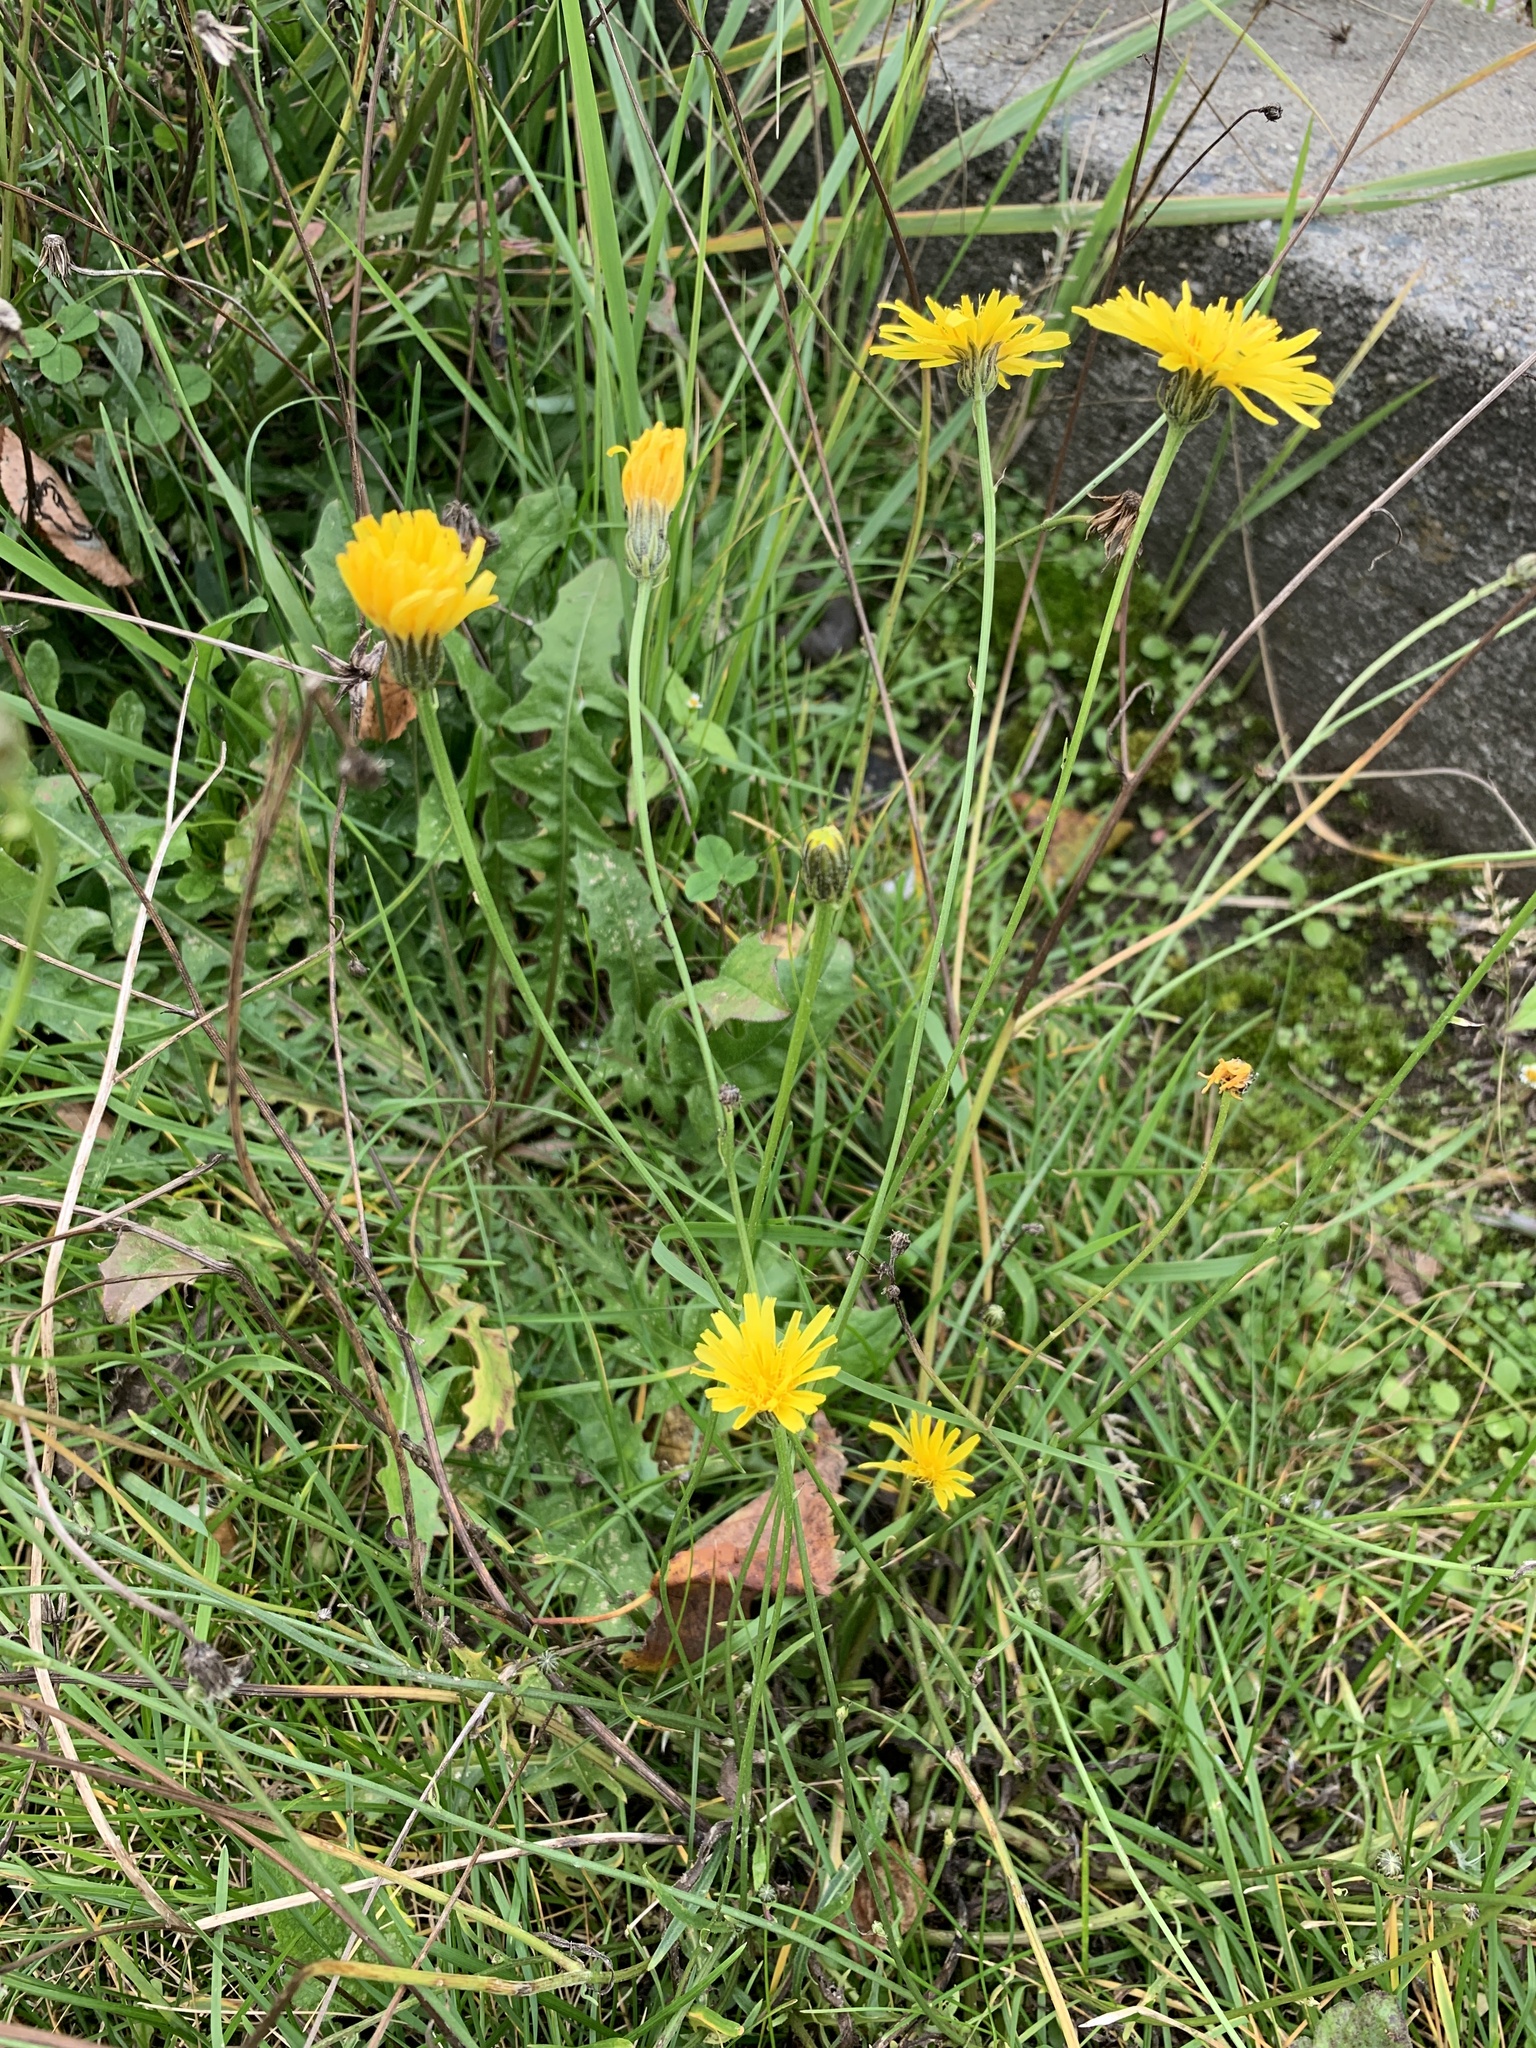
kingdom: Plantae
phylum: Tracheophyta
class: Magnoliopsida
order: Asterales
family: Asteraceae
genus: Scorzoneroides
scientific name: Scorzoneroides autumnalis
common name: Autumn hawkbit
